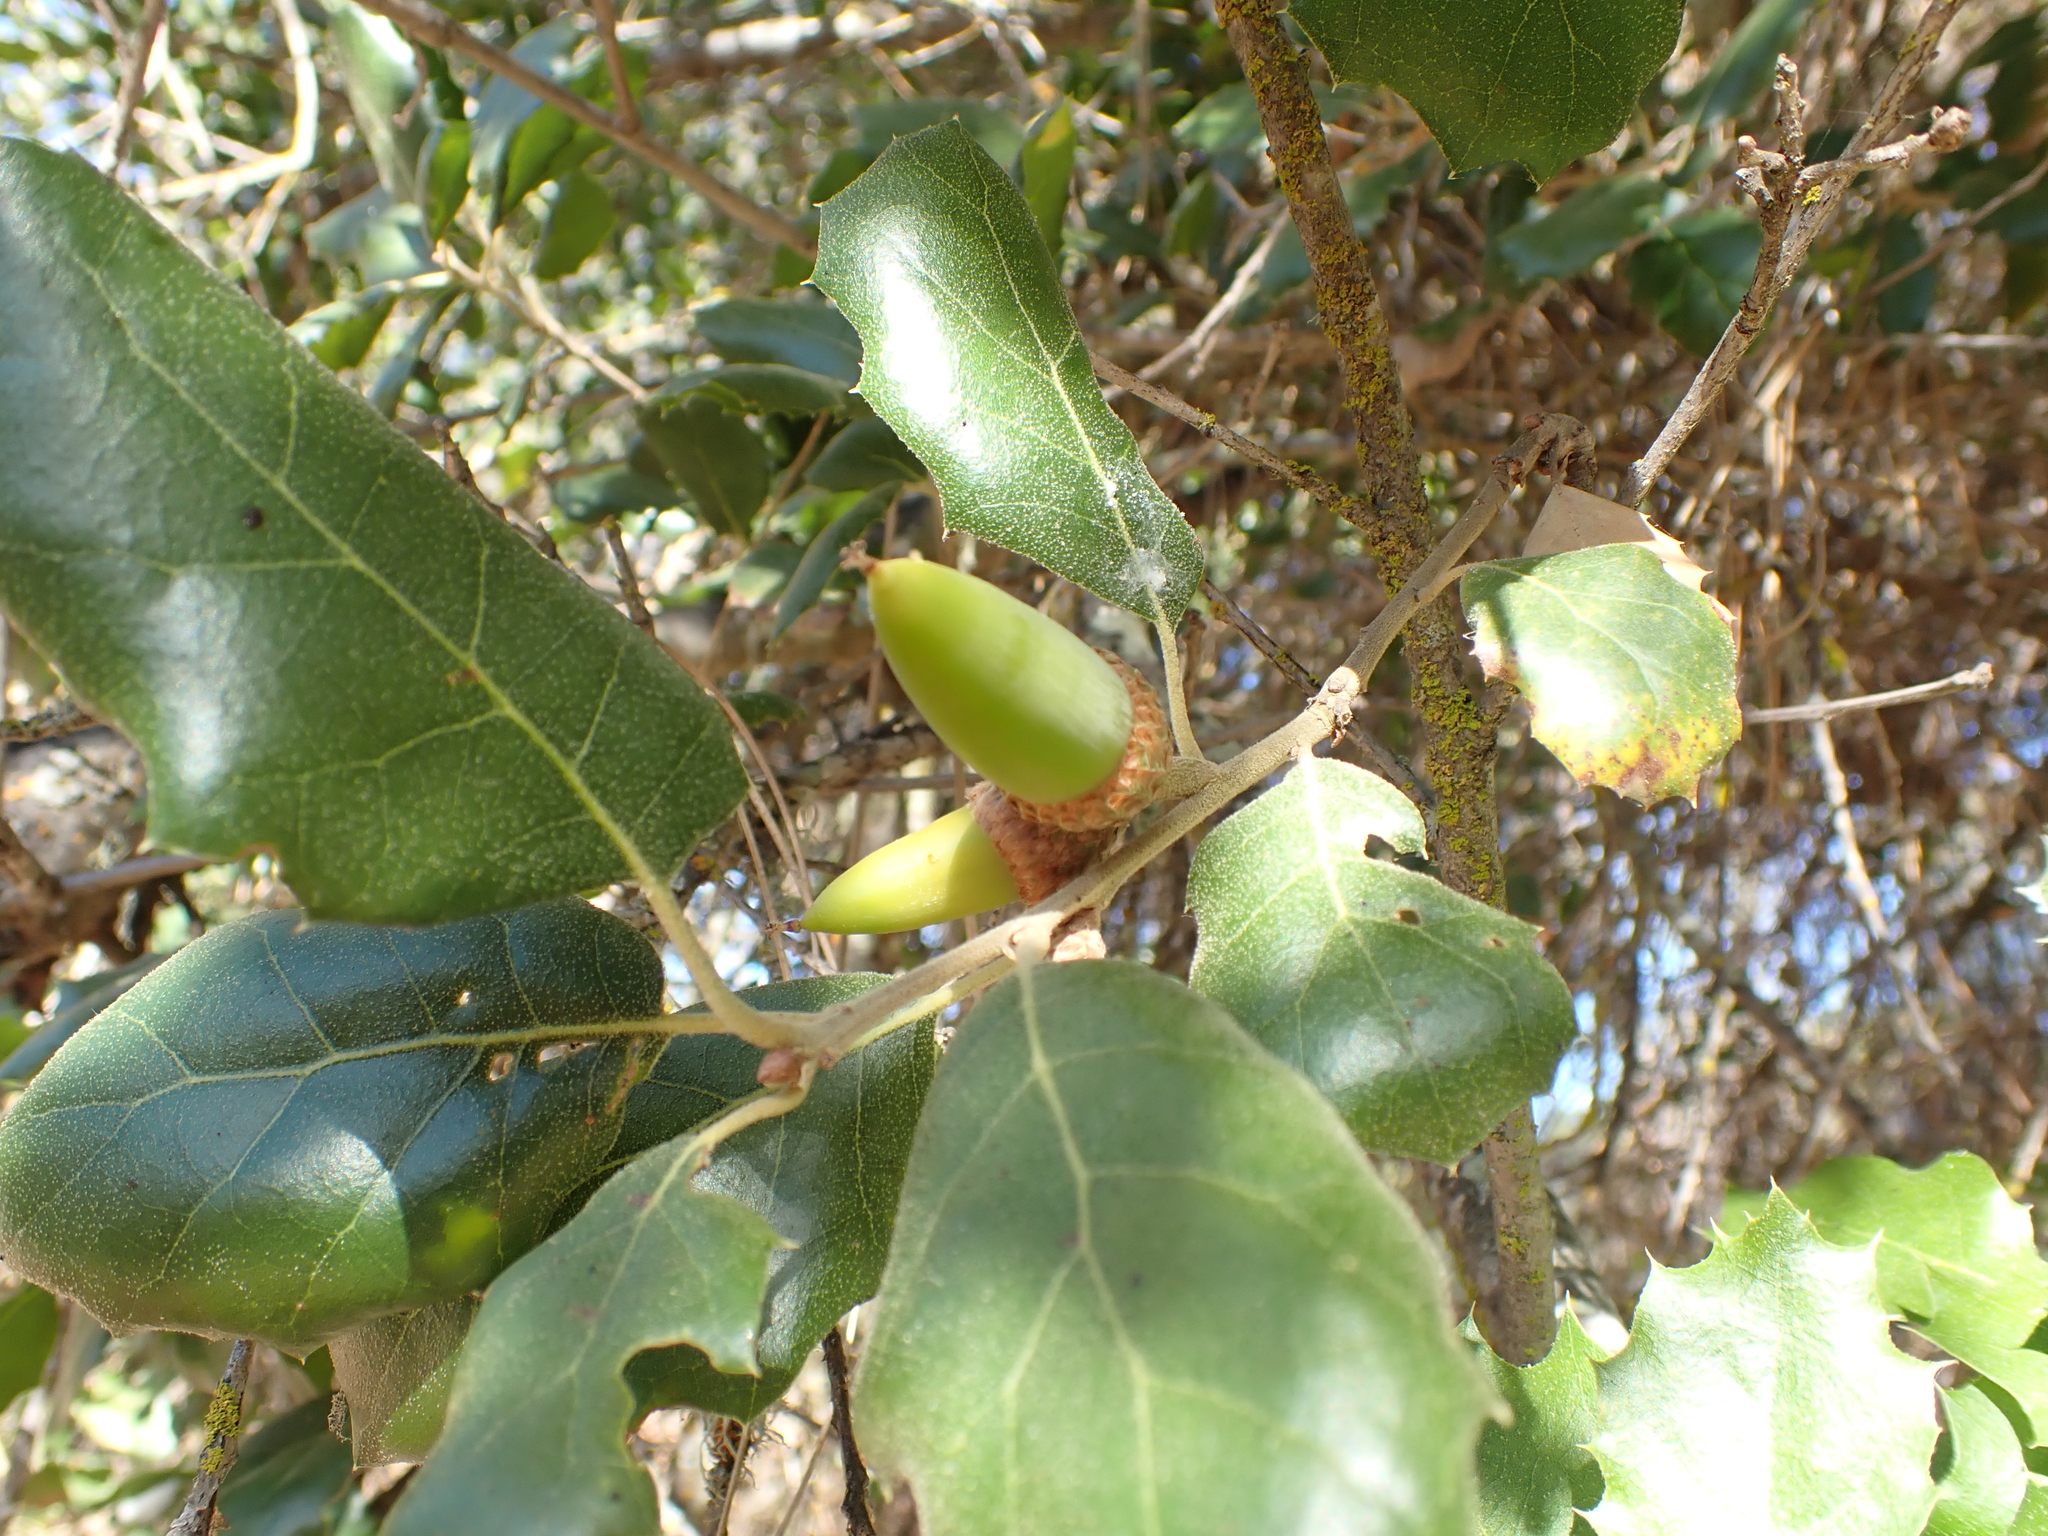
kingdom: Plantae
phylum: Tracheophyta
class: Magnoliopsida
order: Fagales
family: Fagaceae
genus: Quercus
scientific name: Quercus agrifolia
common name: California live oak
